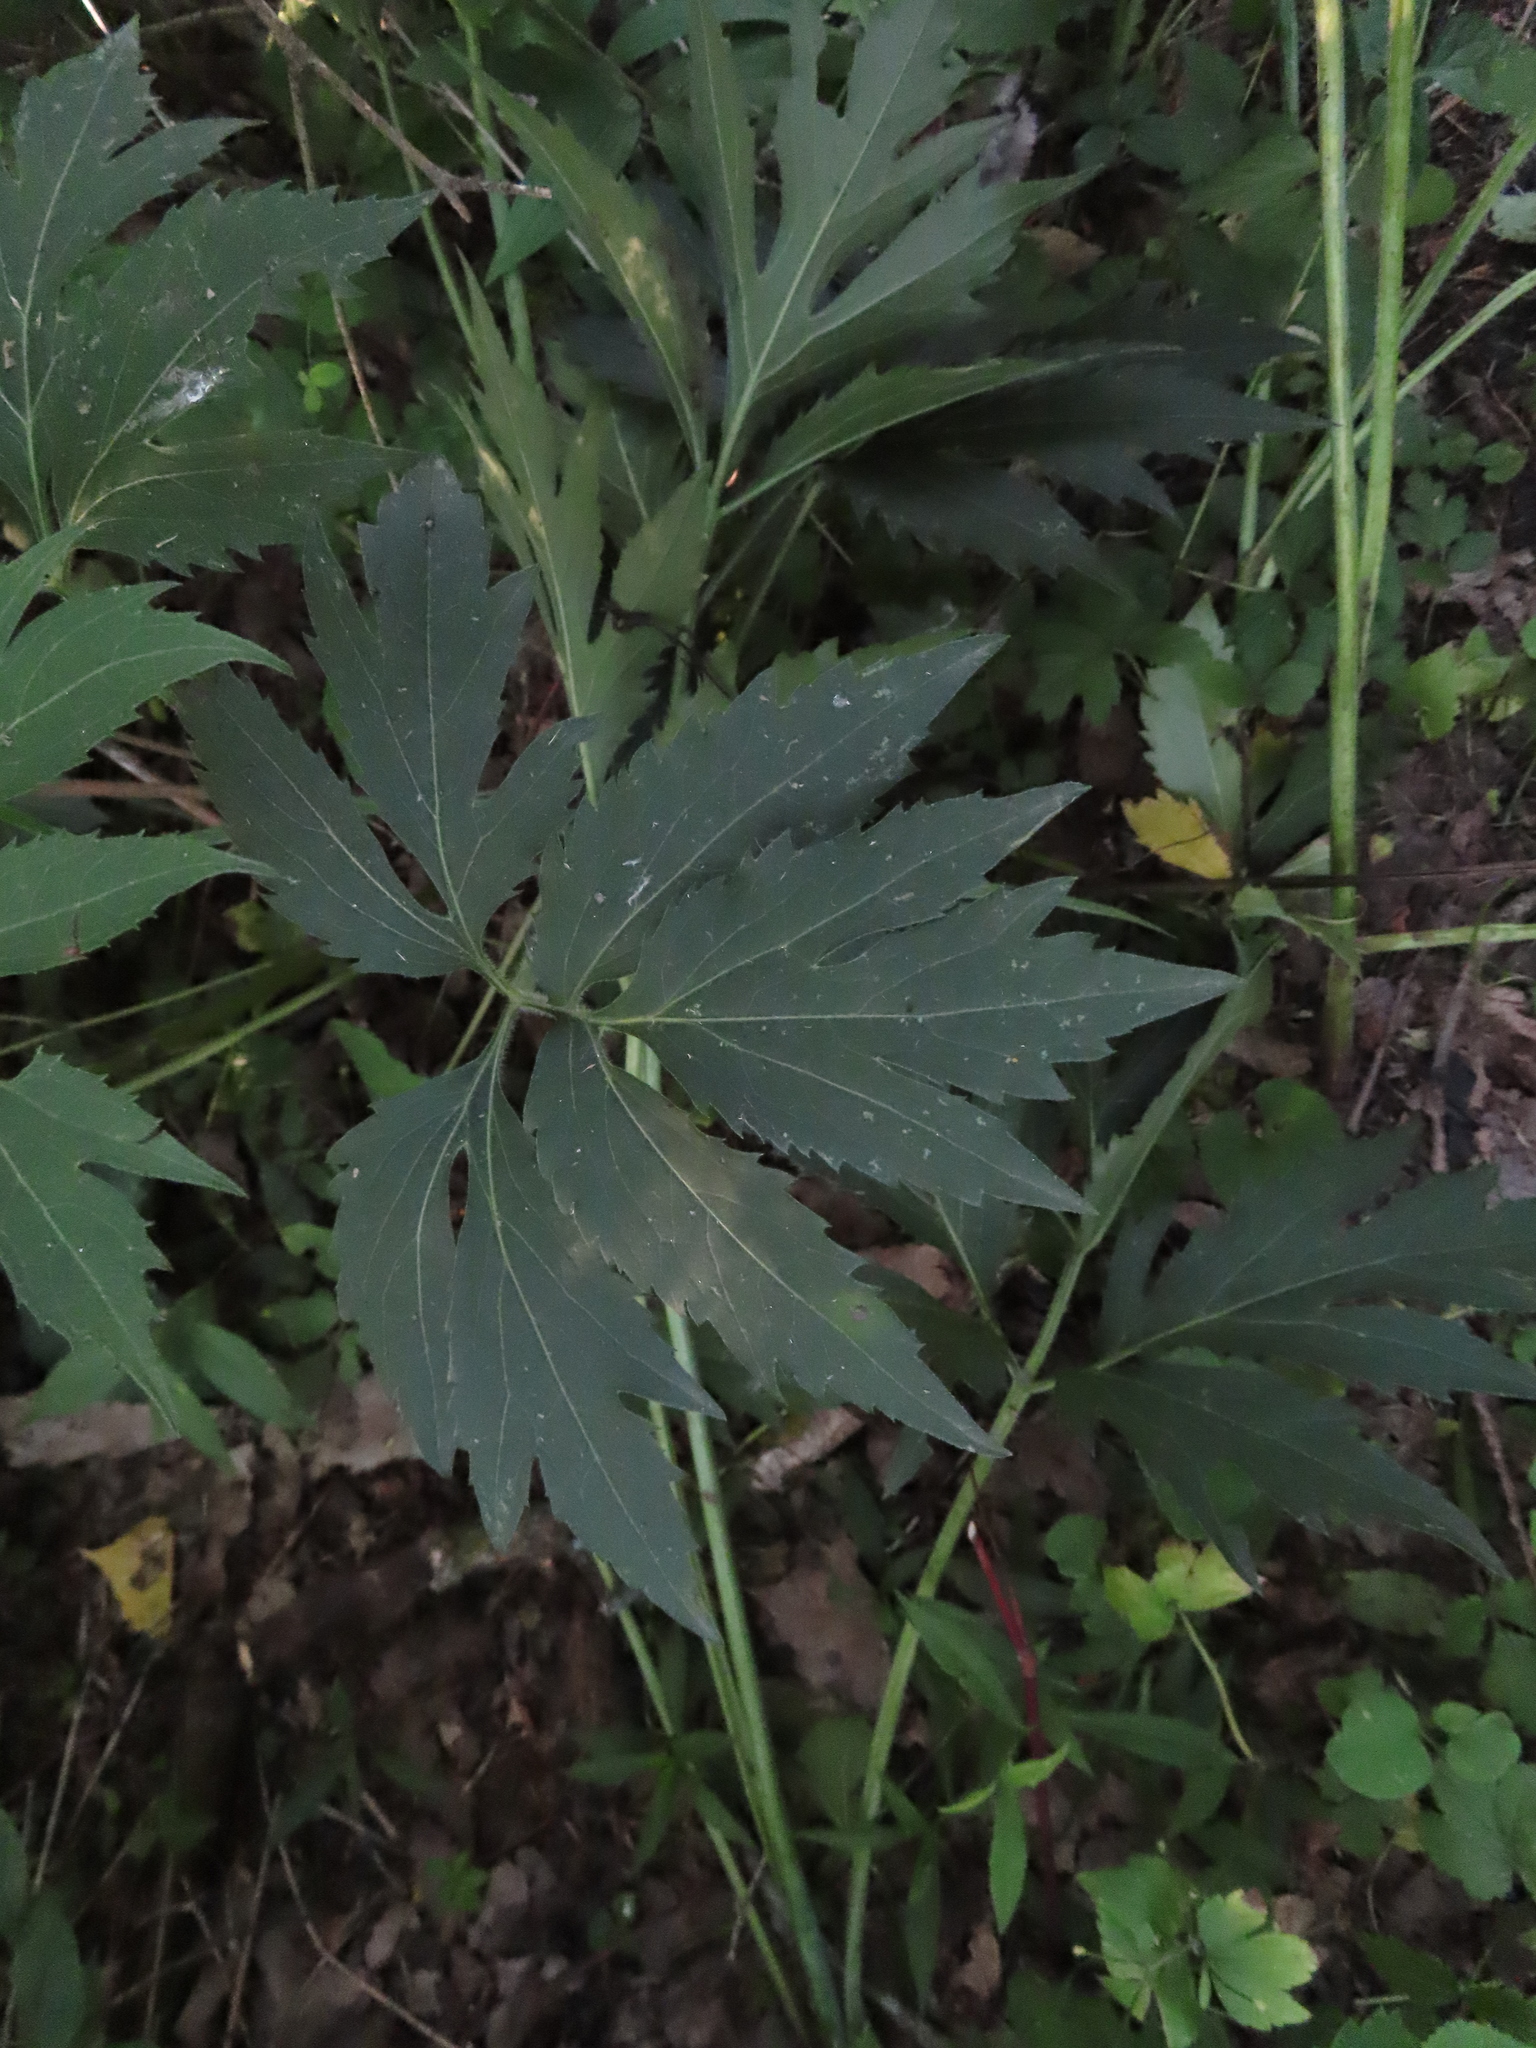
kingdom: Plantae
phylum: Tracheophyta
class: Magnoliopsida
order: Asterales
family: Asteraceae
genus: Rudbeckia
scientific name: Rudbeckia laciniata
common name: Coneflower
